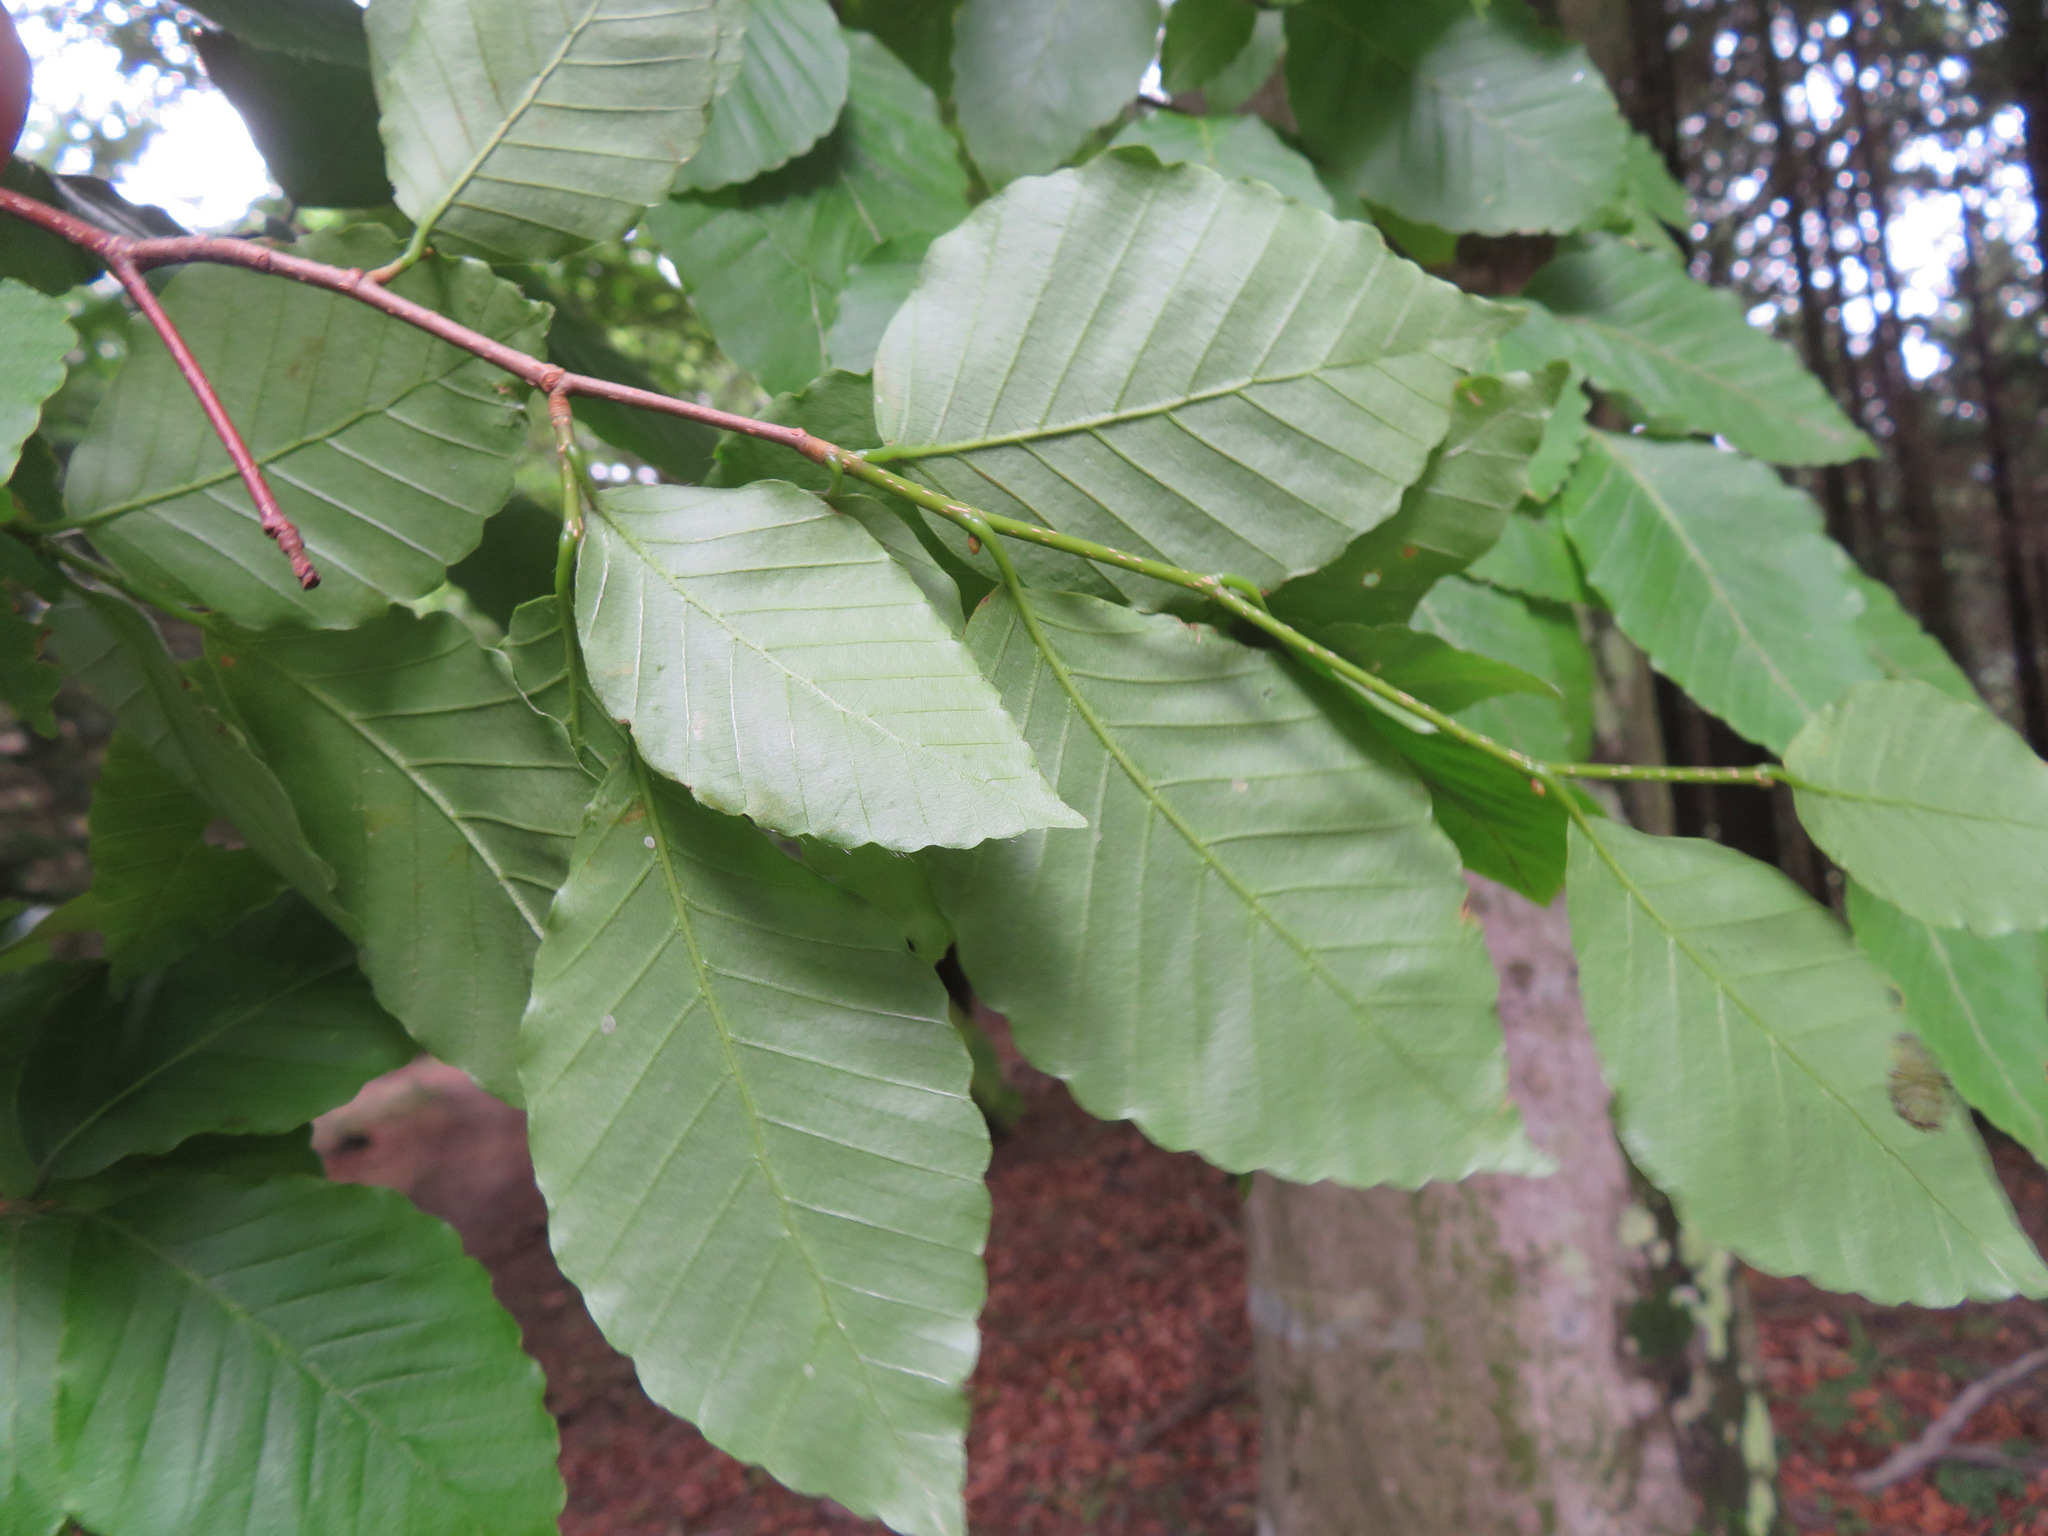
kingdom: Plantae
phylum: Tracheophyta
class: Magnoliopsida
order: Fagales
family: Fagaceae
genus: Fagus
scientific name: Fagus crenata
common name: Japanese beech
